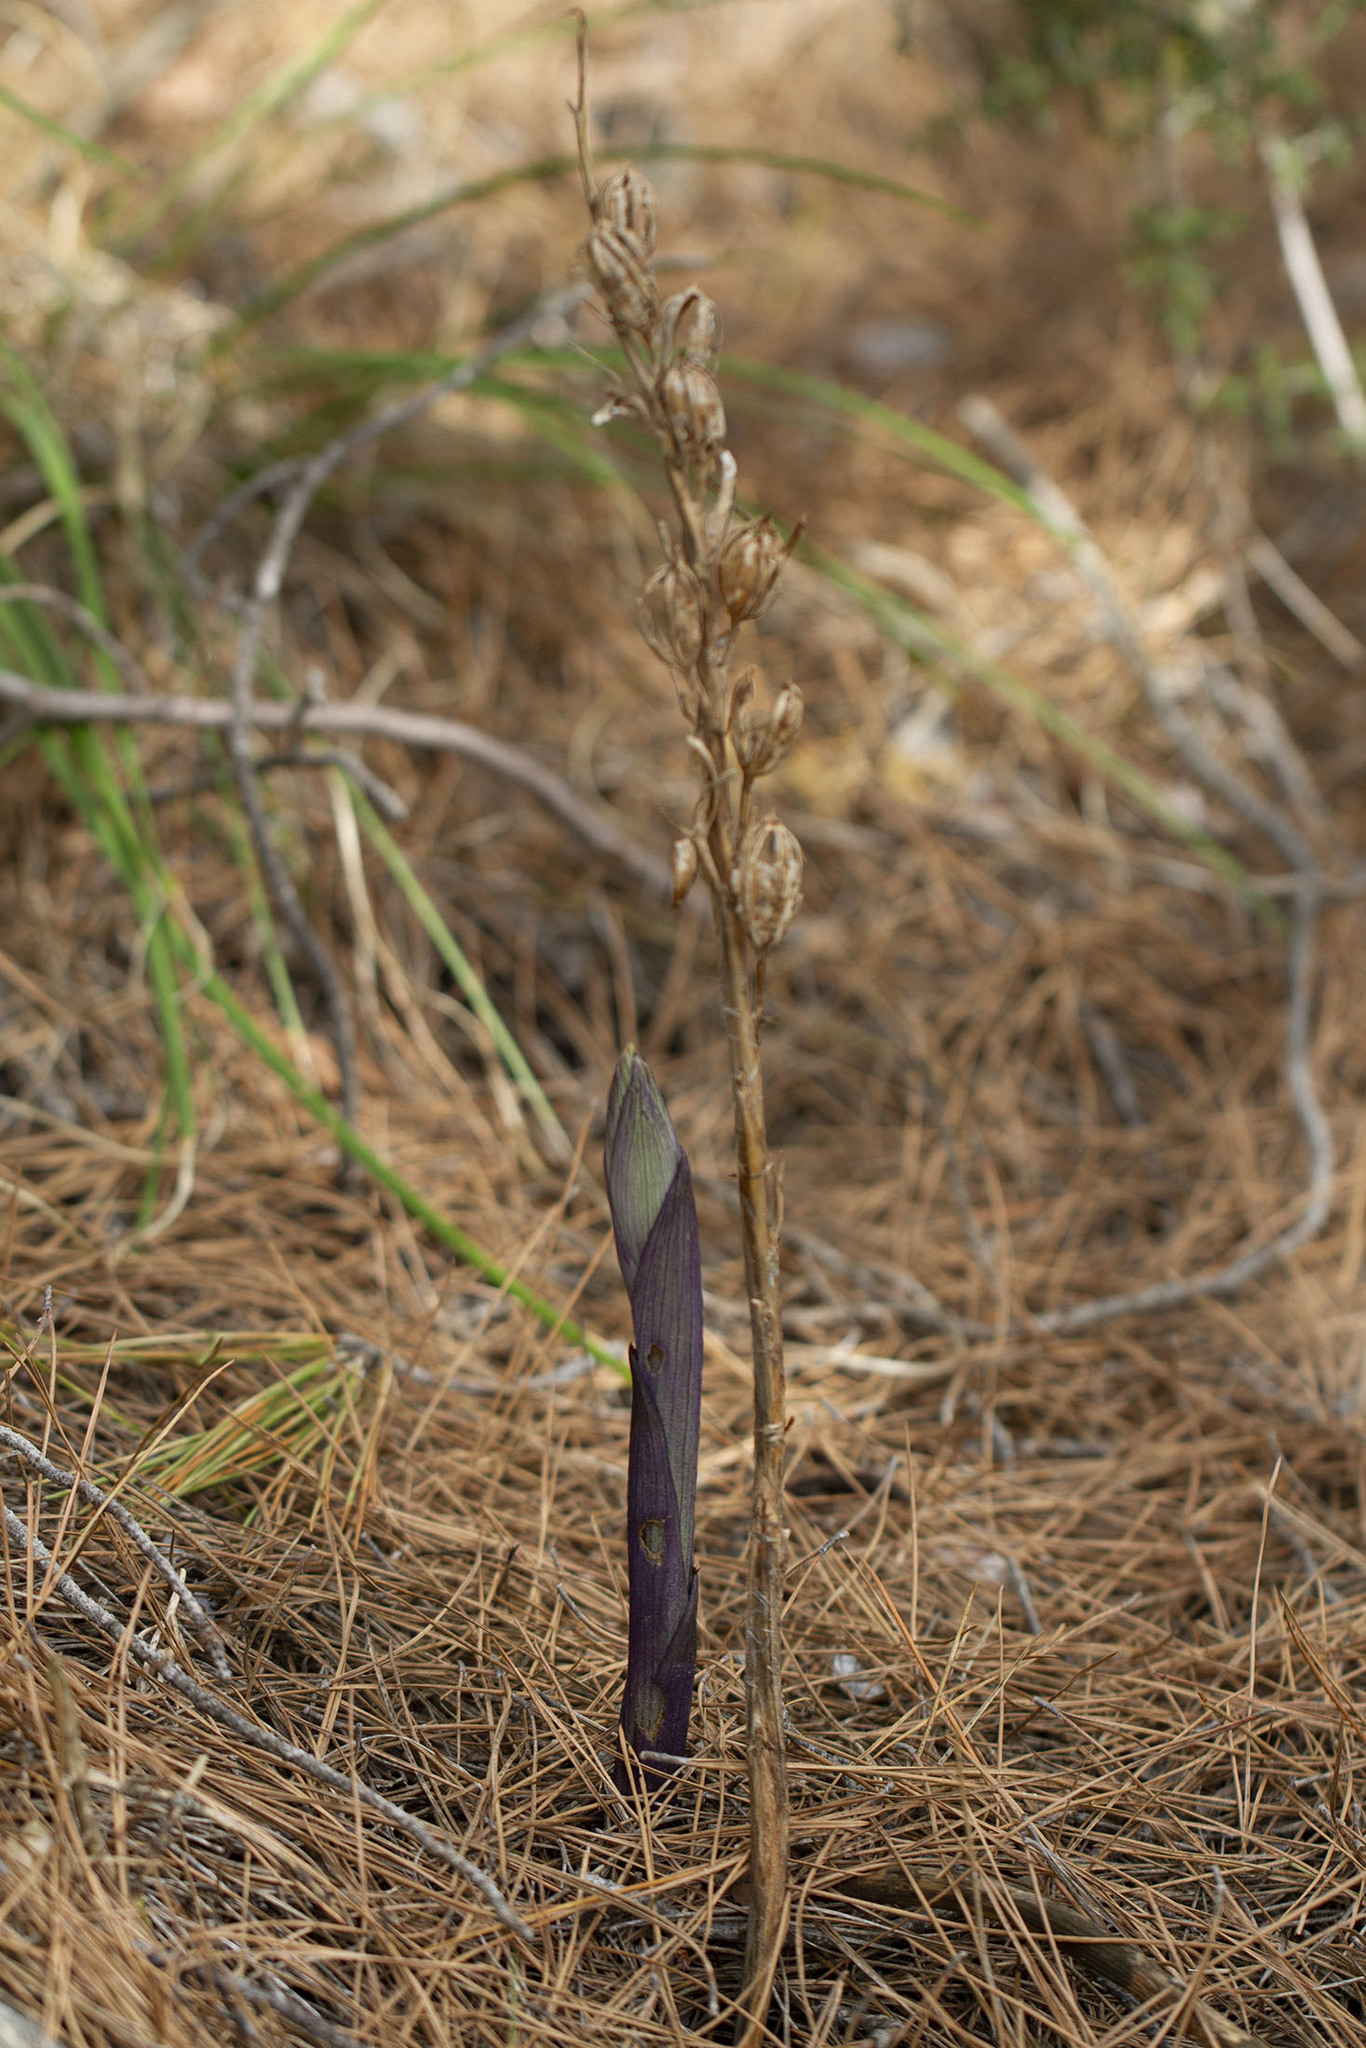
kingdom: Plantae
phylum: Tracheophyta
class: Liliopsida
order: Asparagales
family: Orchidaceae
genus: Limodorum
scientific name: Limodorum abortivum
